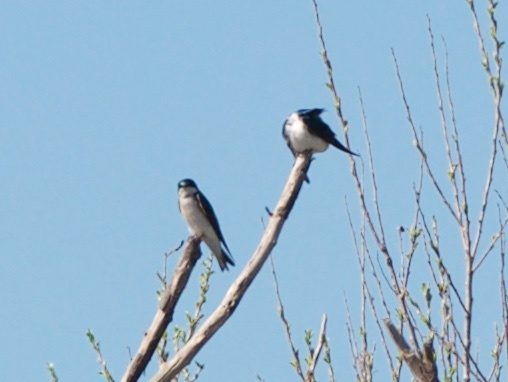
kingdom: Animalia
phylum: Chordata
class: Aves
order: Passeriformes
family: Hirundinidae
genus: Tachycineta
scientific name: Tachycineta bicolor
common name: Tree swallow
